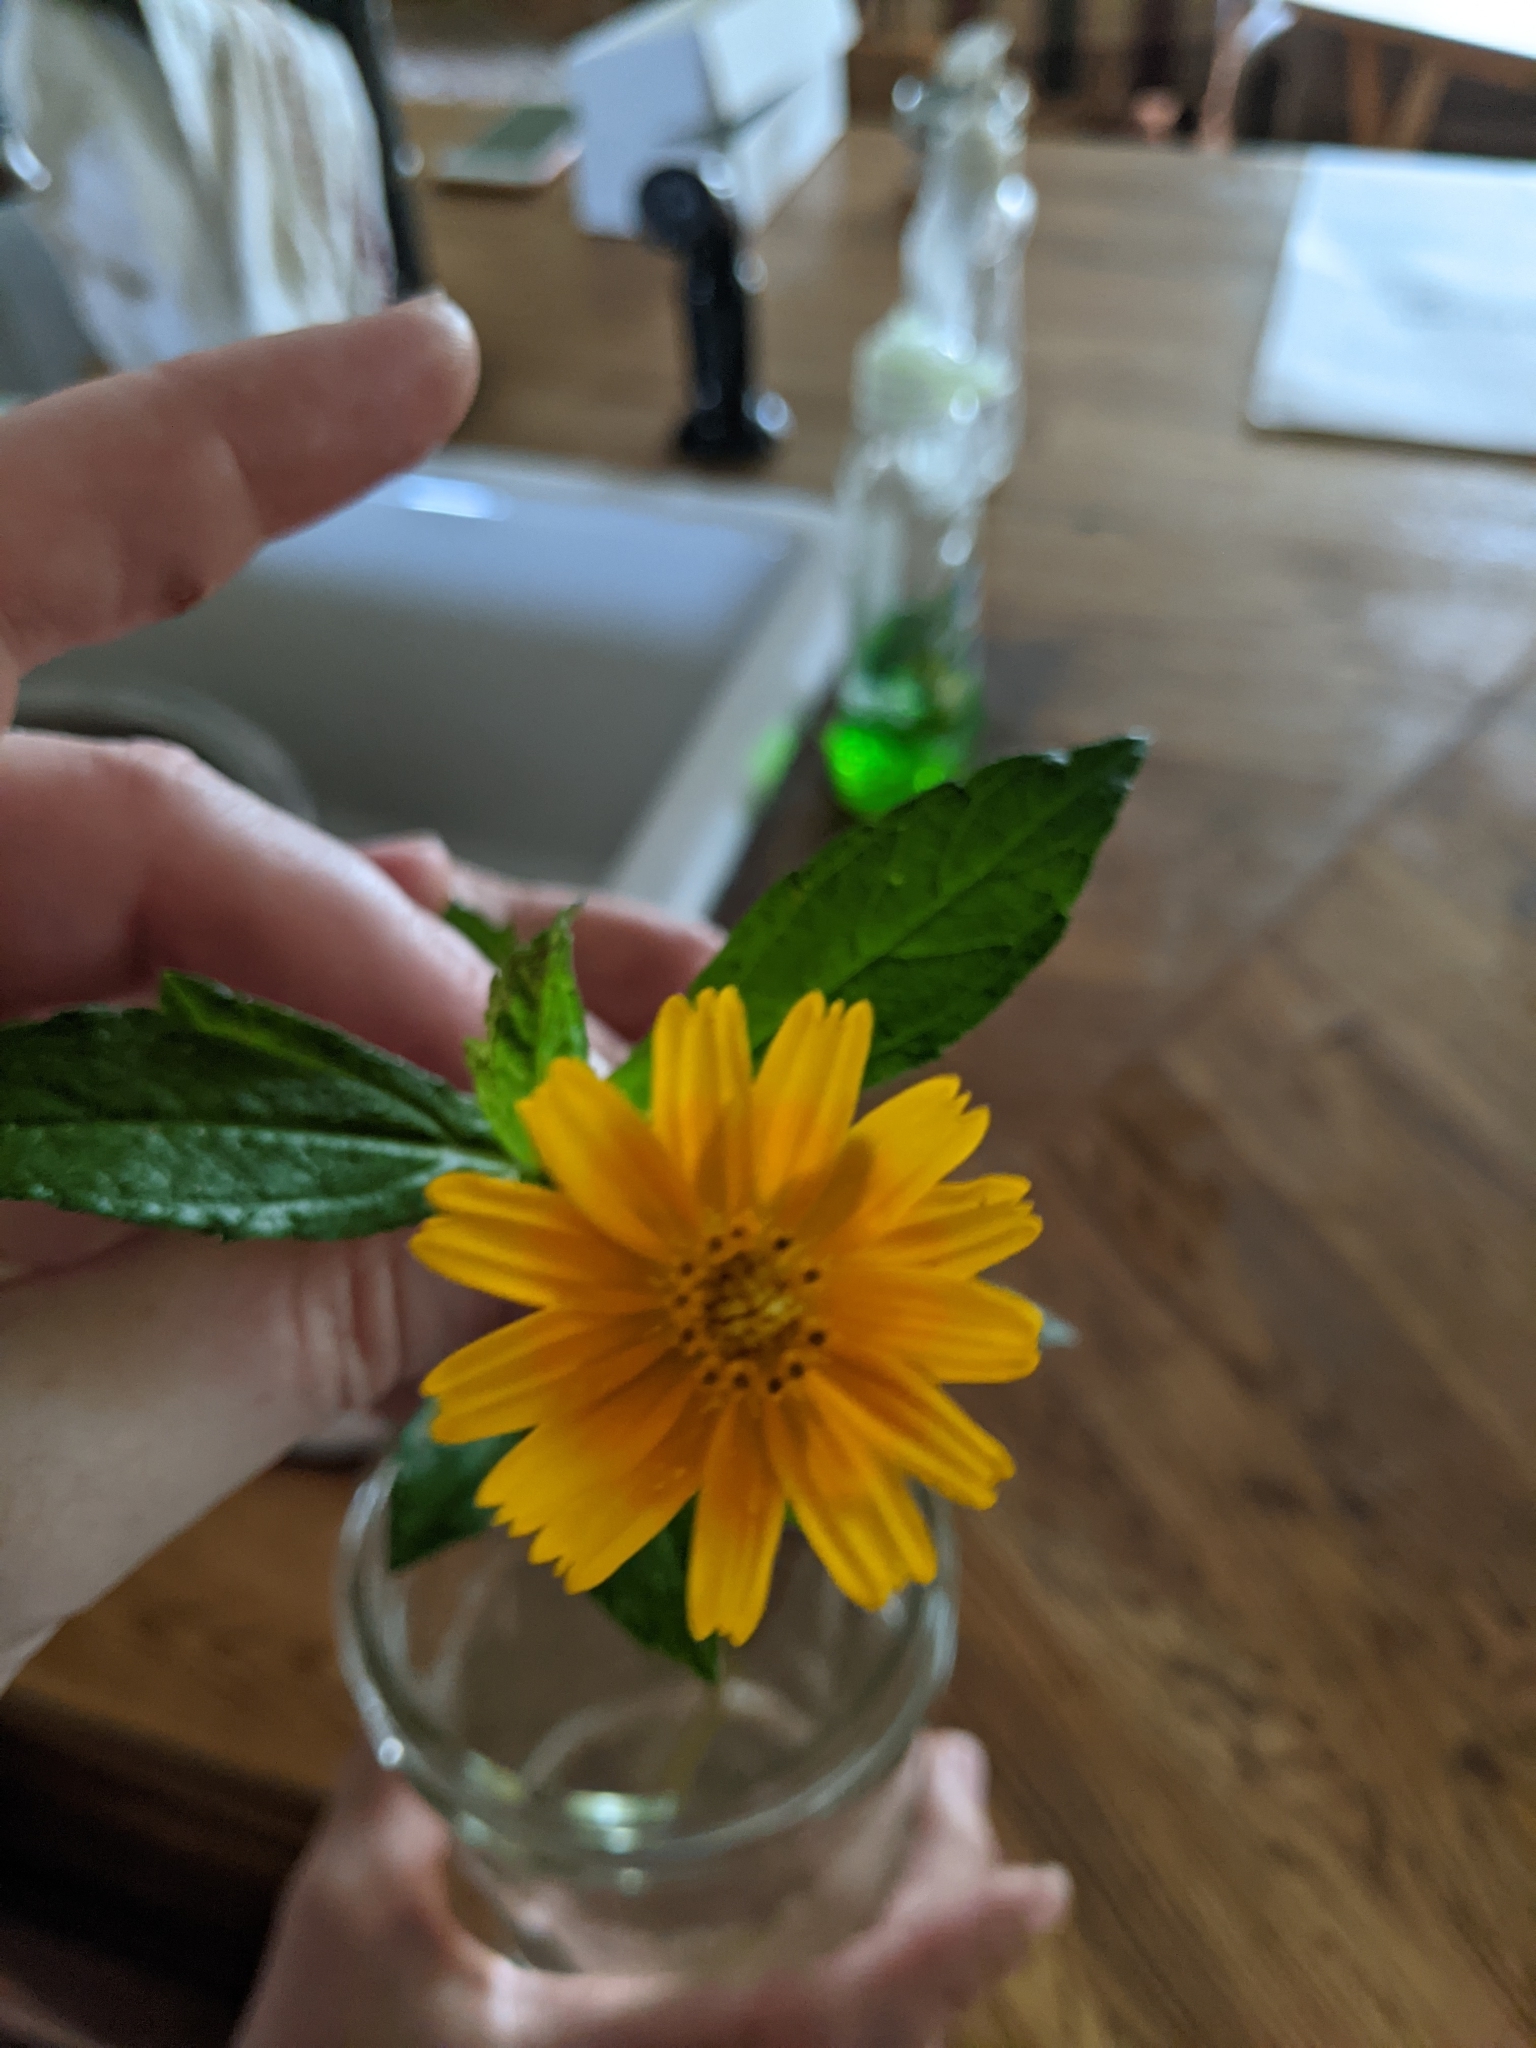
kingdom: Plantae
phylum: Tracheophyta
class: Magnoliopsida
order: Asterales
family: Asteraceae
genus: Sphagneticola
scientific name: Sphagneticola trilobata
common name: Bay biscayne creeping-oxeye
